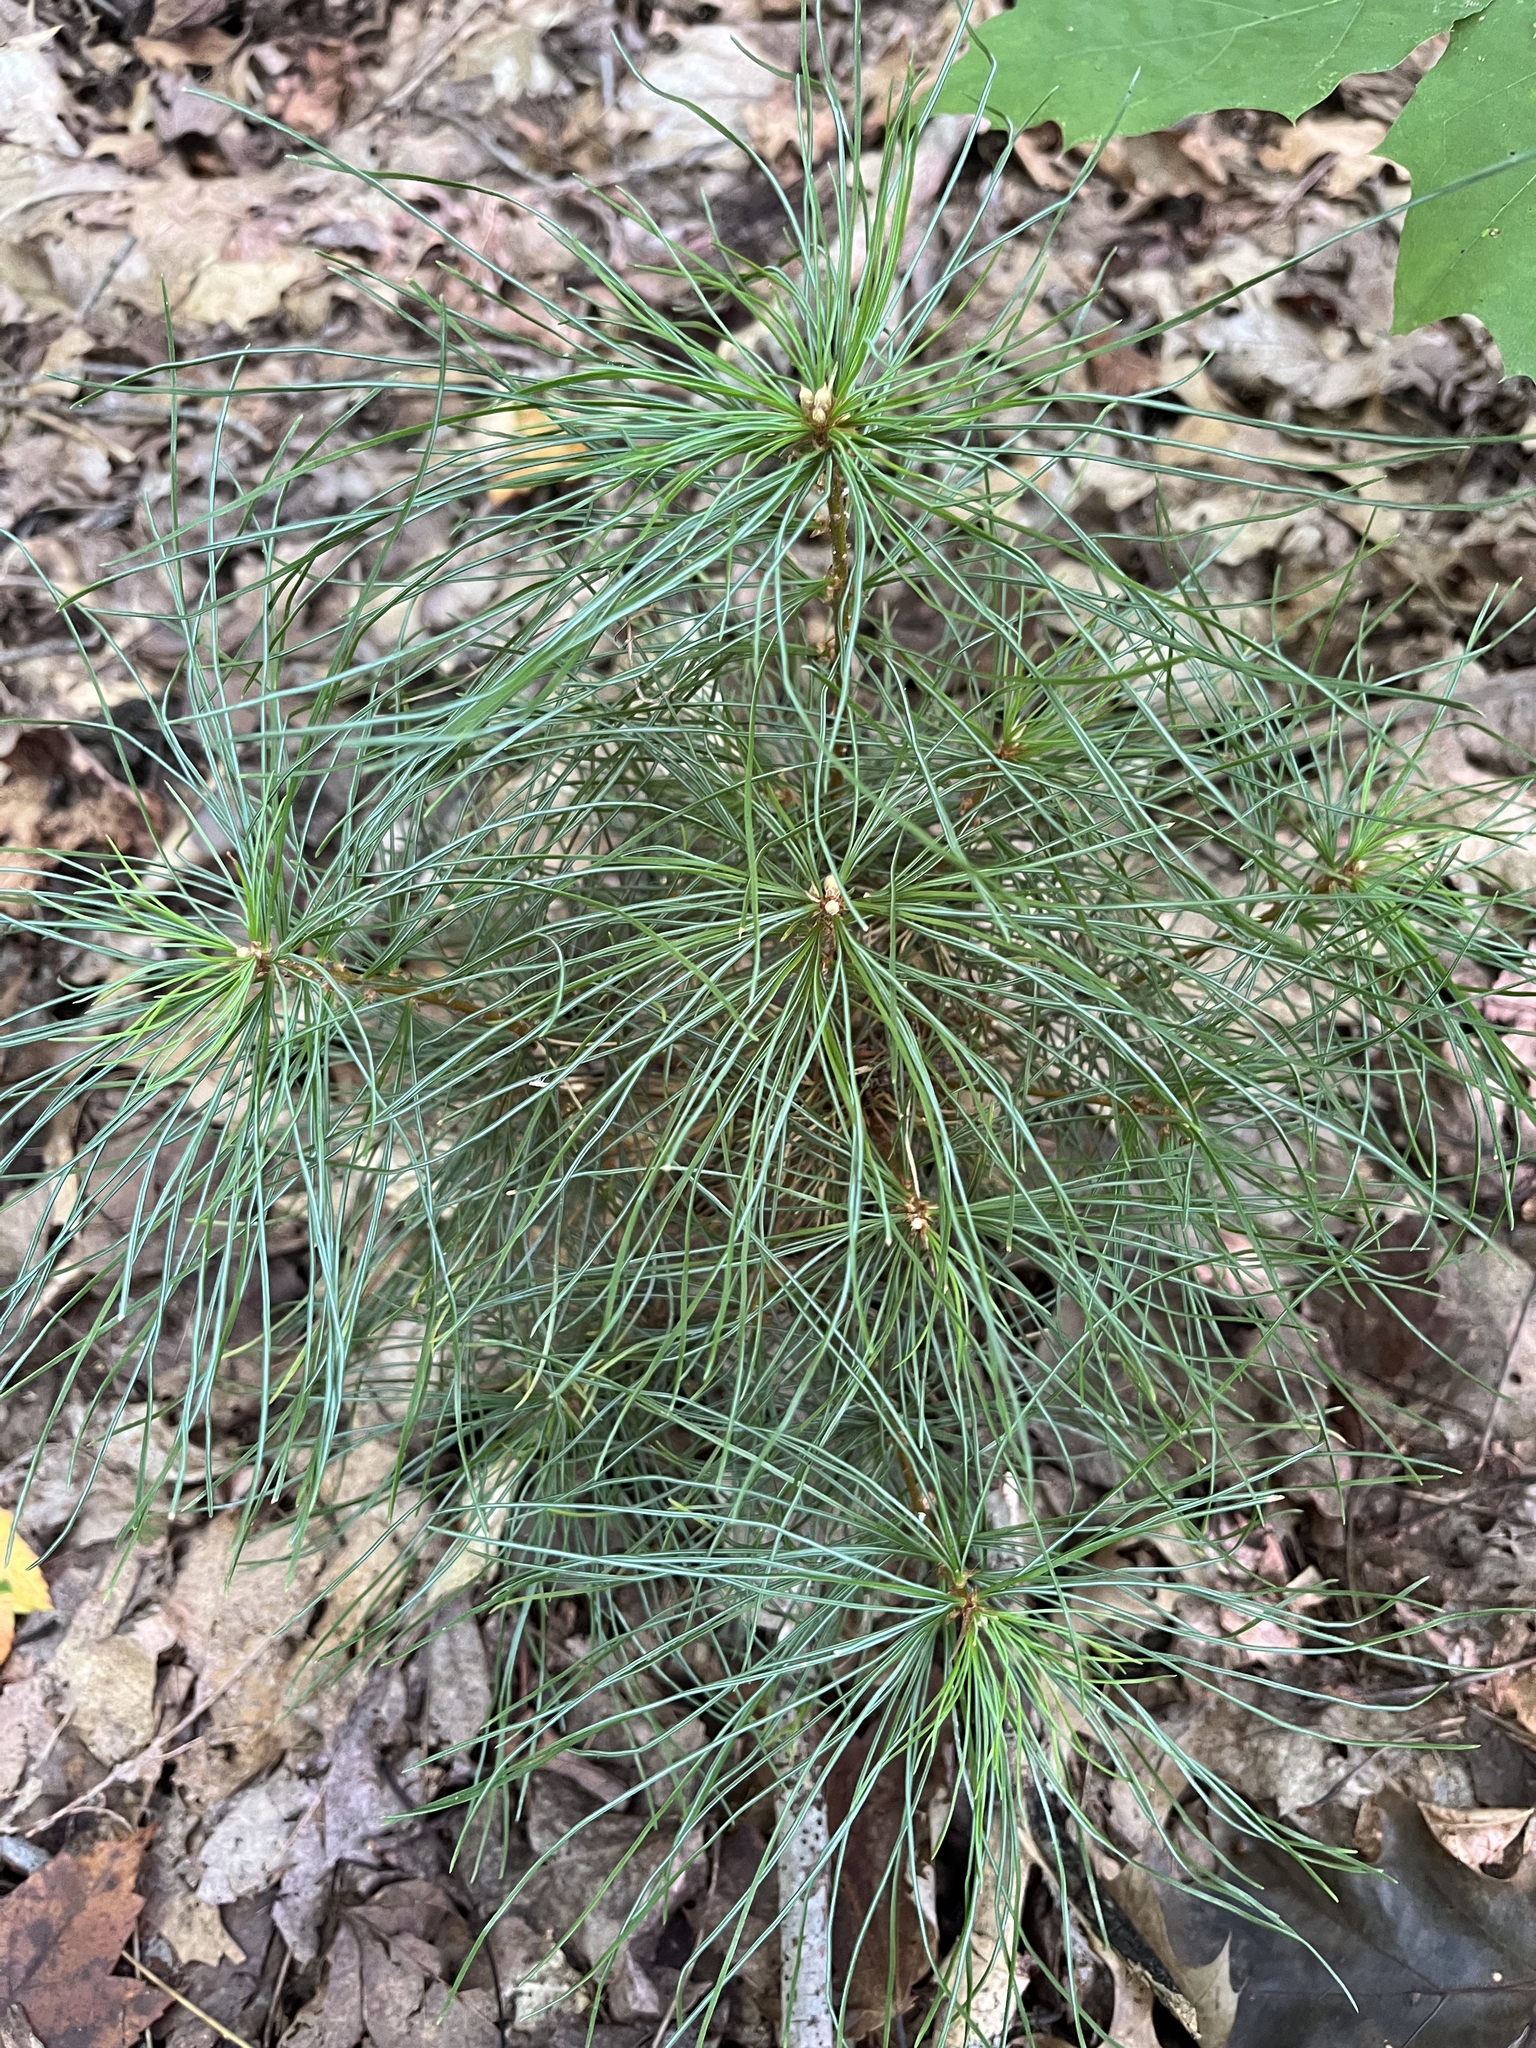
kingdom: Plantae
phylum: Tracheophyta
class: Pinopsida
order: Pinales
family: Pinaceae
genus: Pinus
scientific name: Pinus strobus
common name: Weymouth pine
